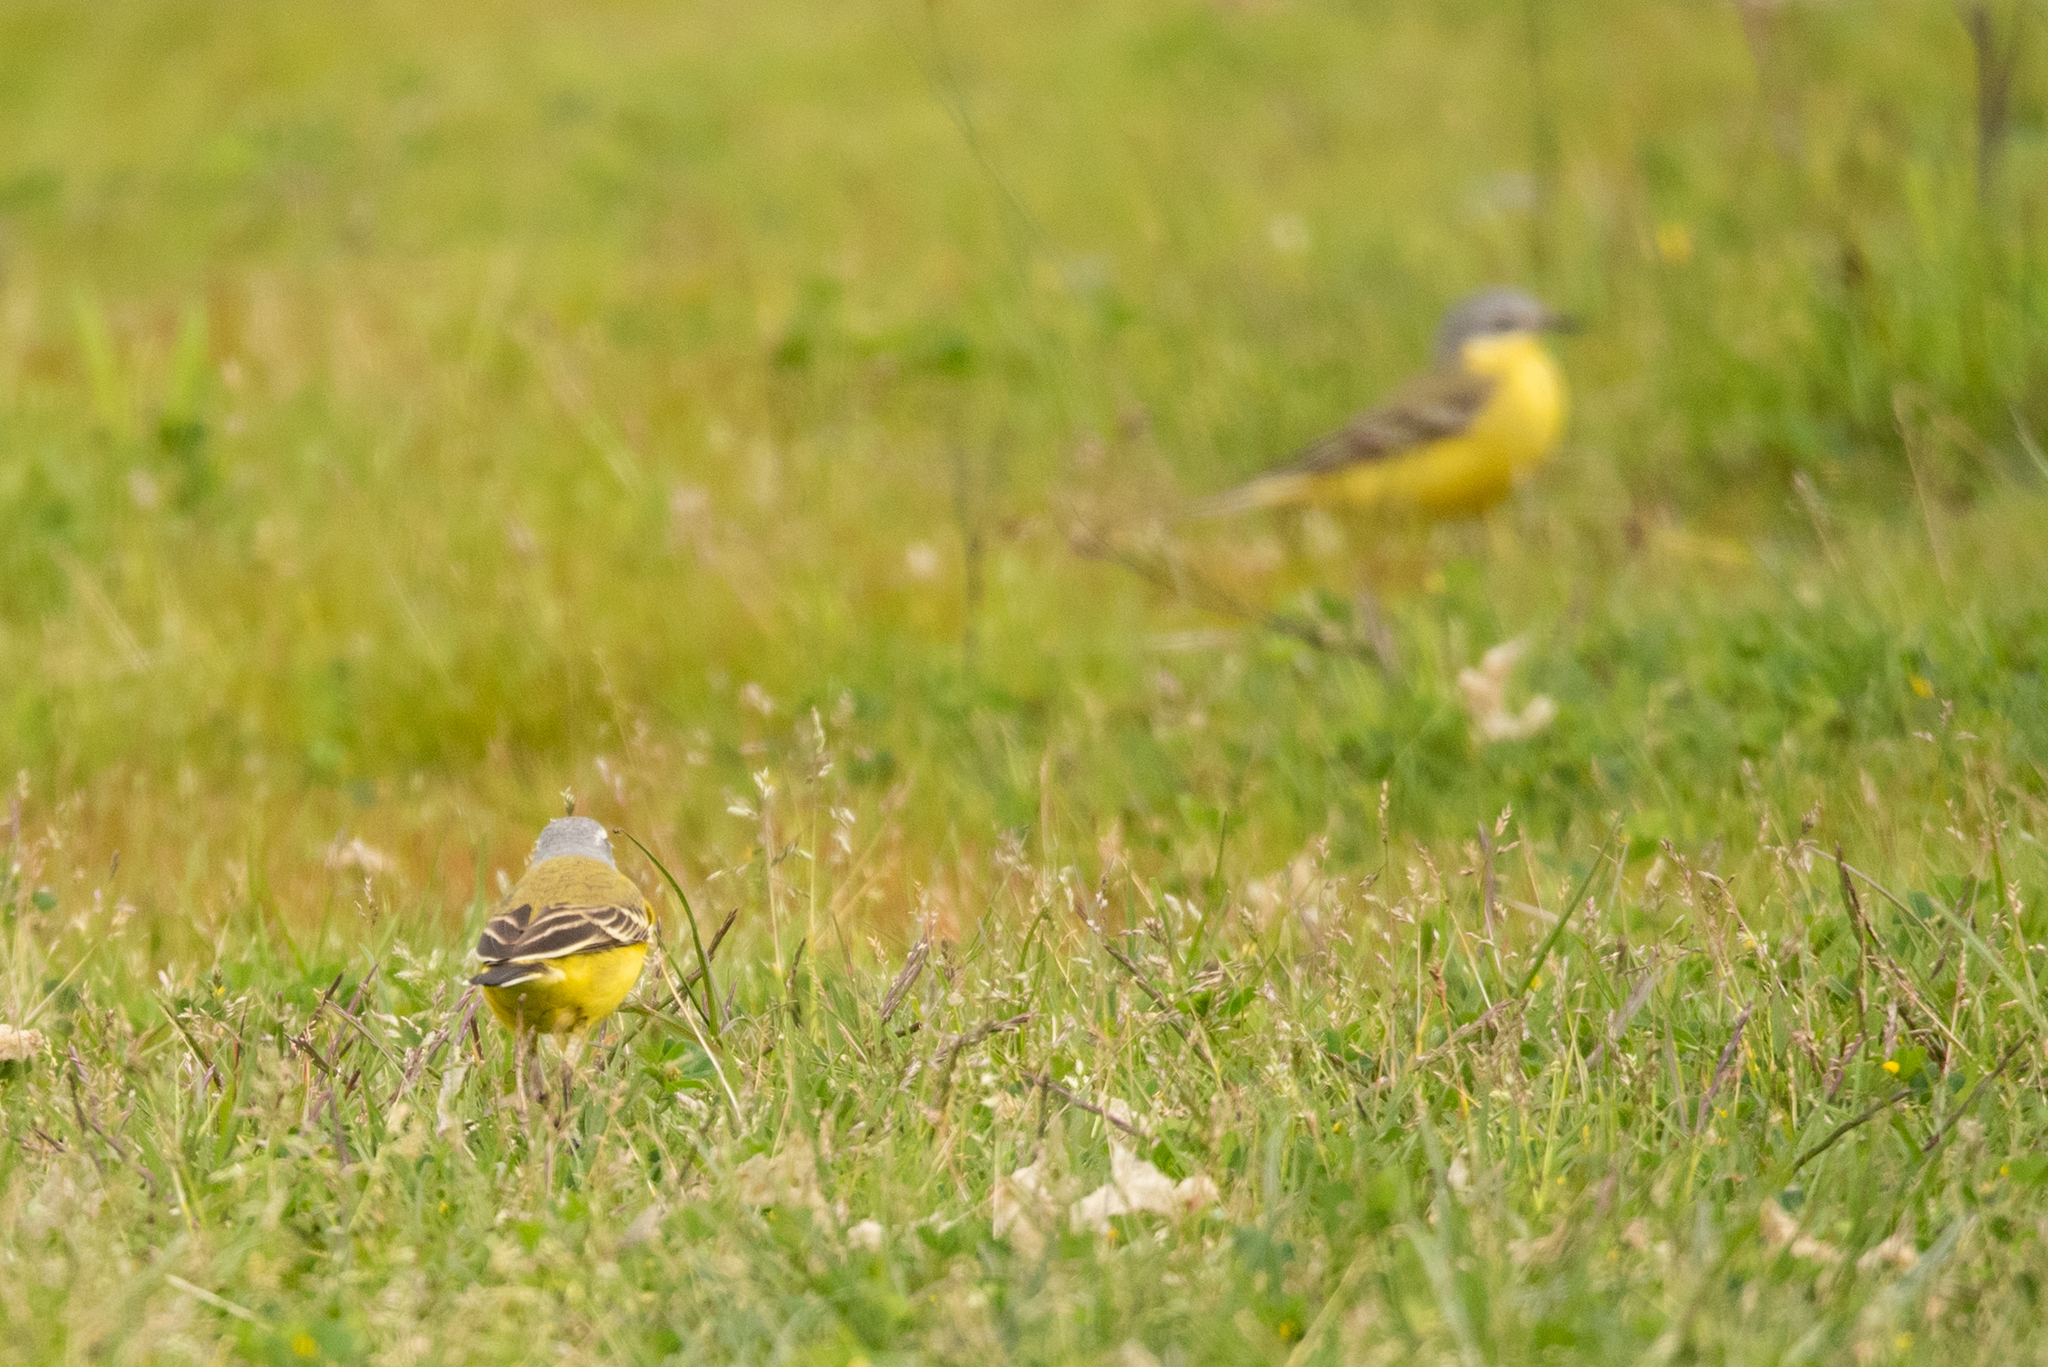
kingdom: Animalia
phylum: Chordata
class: Aves
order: Passeriformes
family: Motacillidae
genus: Motacilla
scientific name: Motacilla flava
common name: Western yellow wagtail
